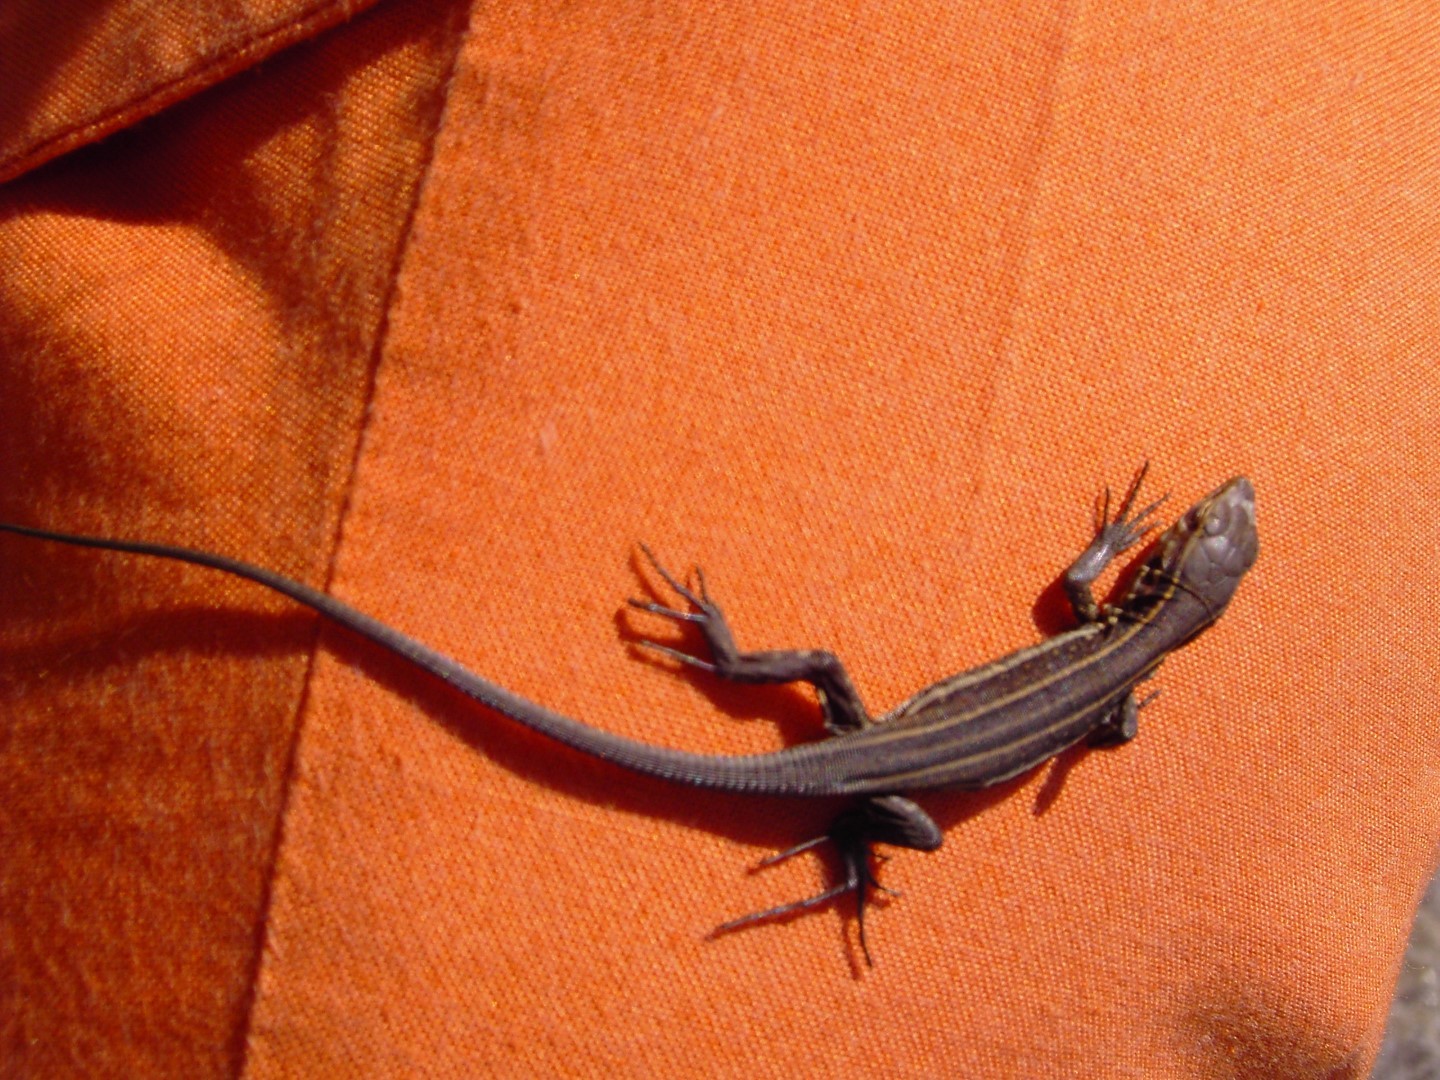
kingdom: Animalia
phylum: Chordata
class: Squamata
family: Lacertidae
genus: Gallotia
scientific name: Gallotia galloti
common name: Gallot's lizard
